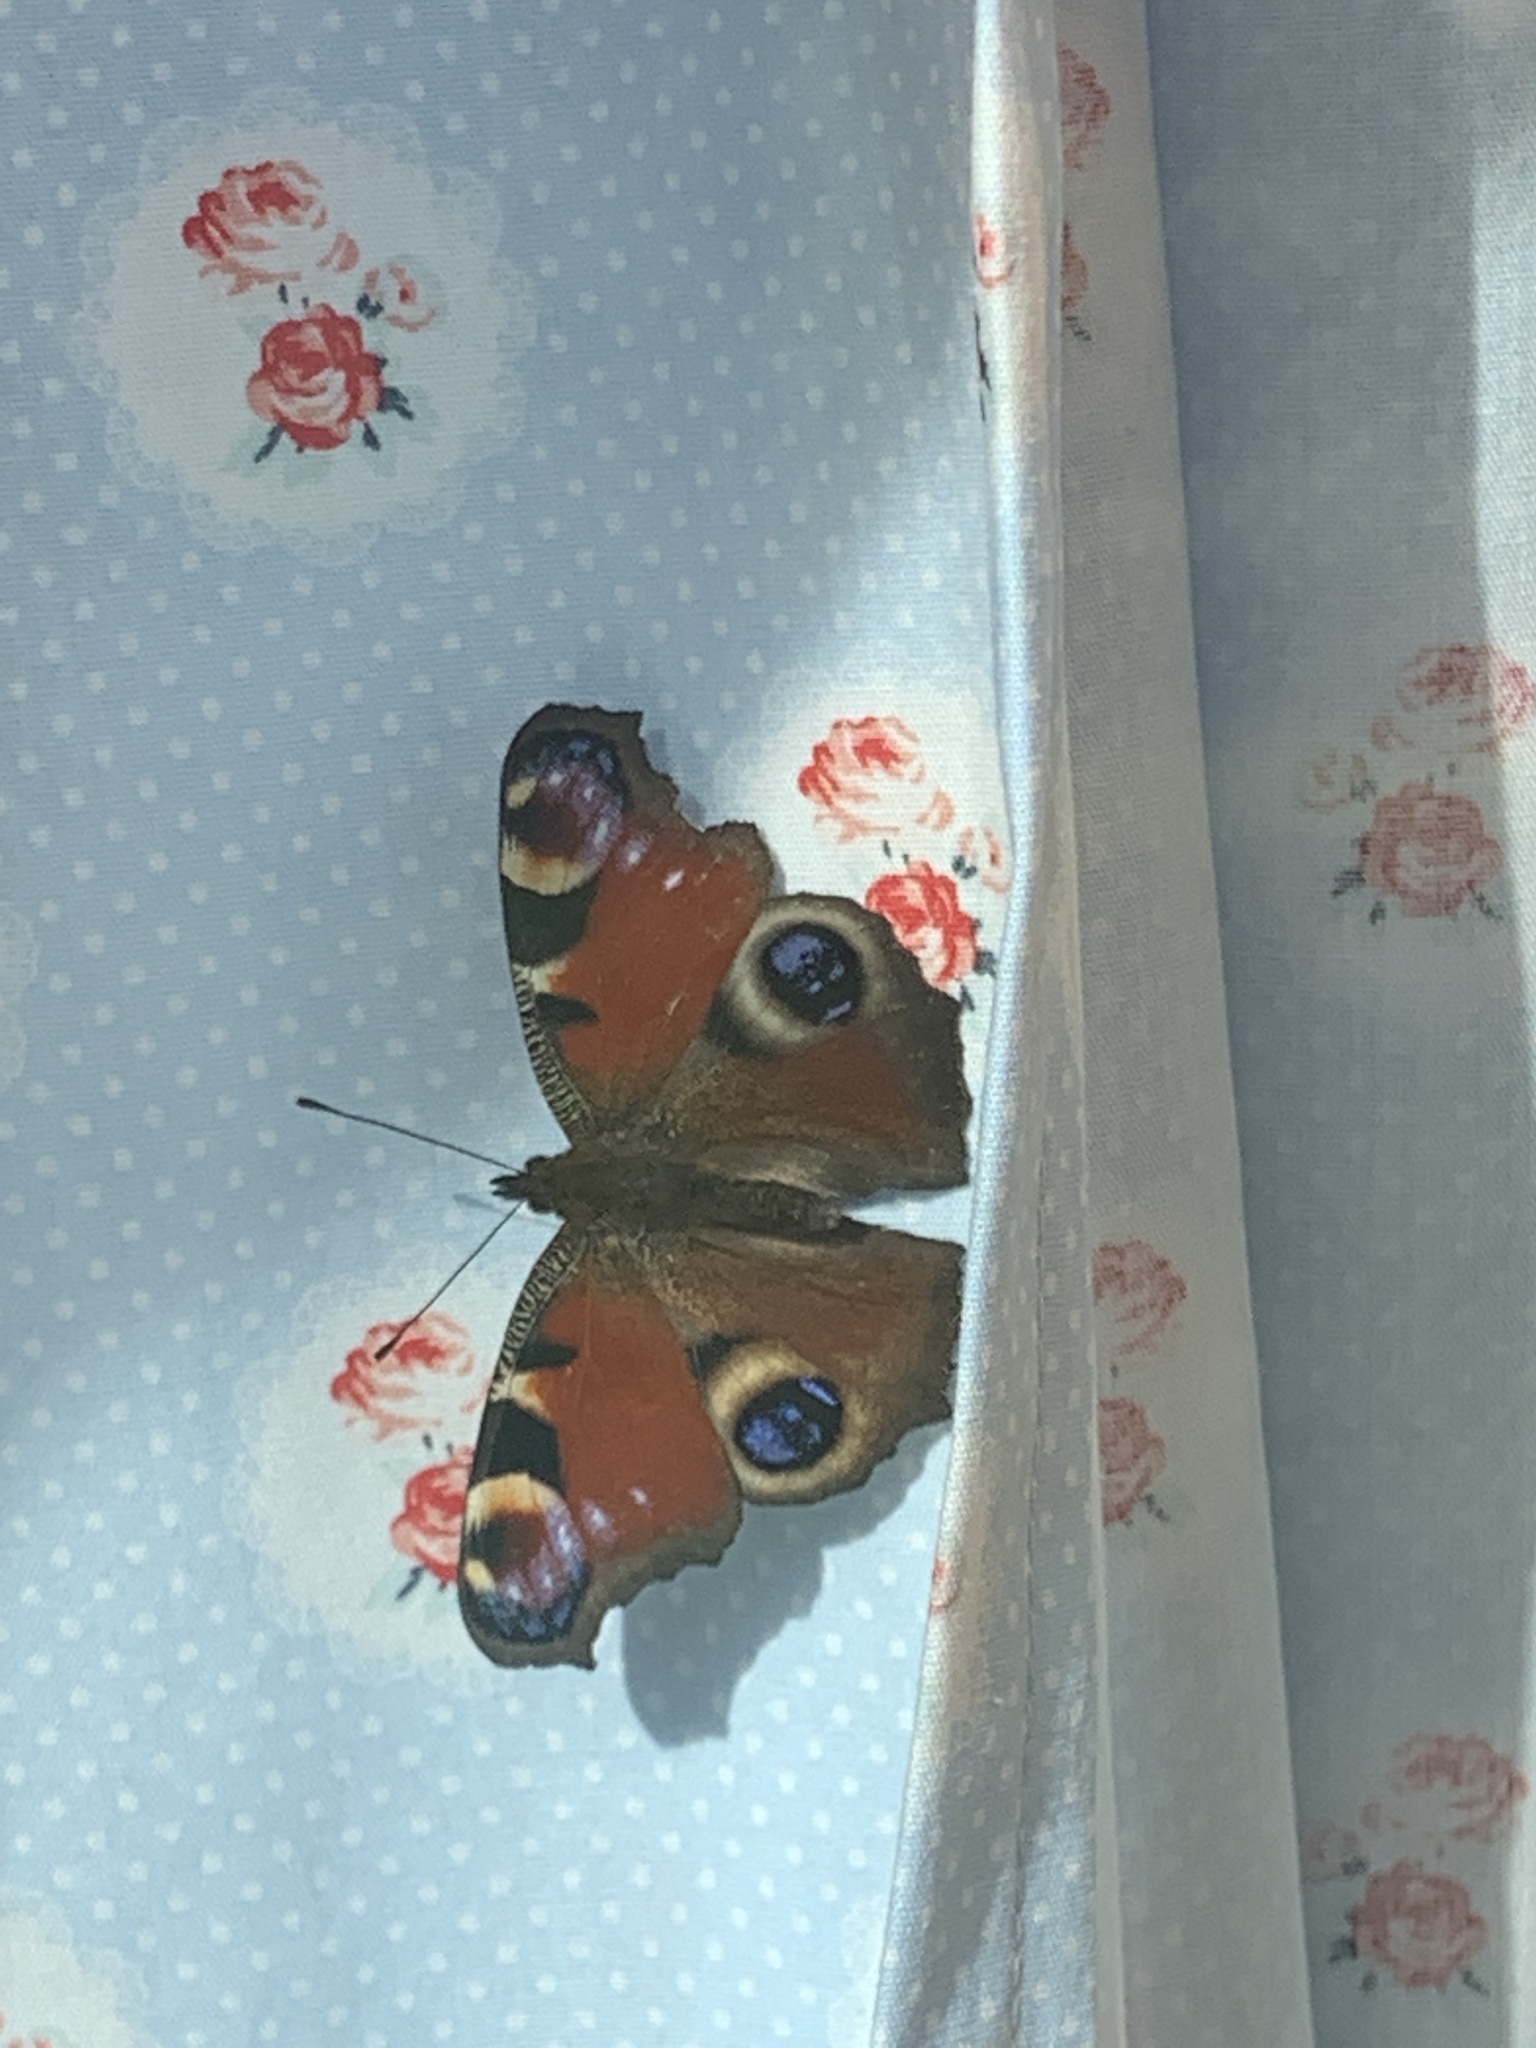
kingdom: Animalia
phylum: Arthropoda
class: Insecta
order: Lepidoptera
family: Nymphalidae
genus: Aglais
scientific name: Aglais io
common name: Peacock
